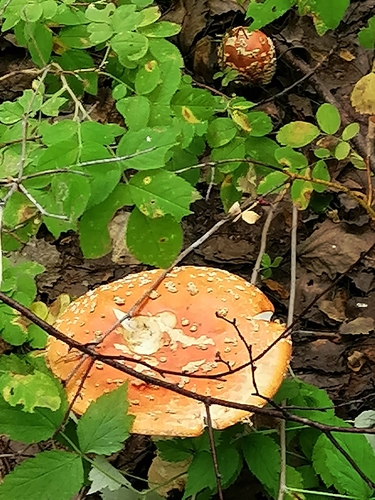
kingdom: Fungi
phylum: Basidiomycota
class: Agaricomycetes
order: Agaricales
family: Amanitaceae
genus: Amanita
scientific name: Amanita muscaria
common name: Fly agaric
